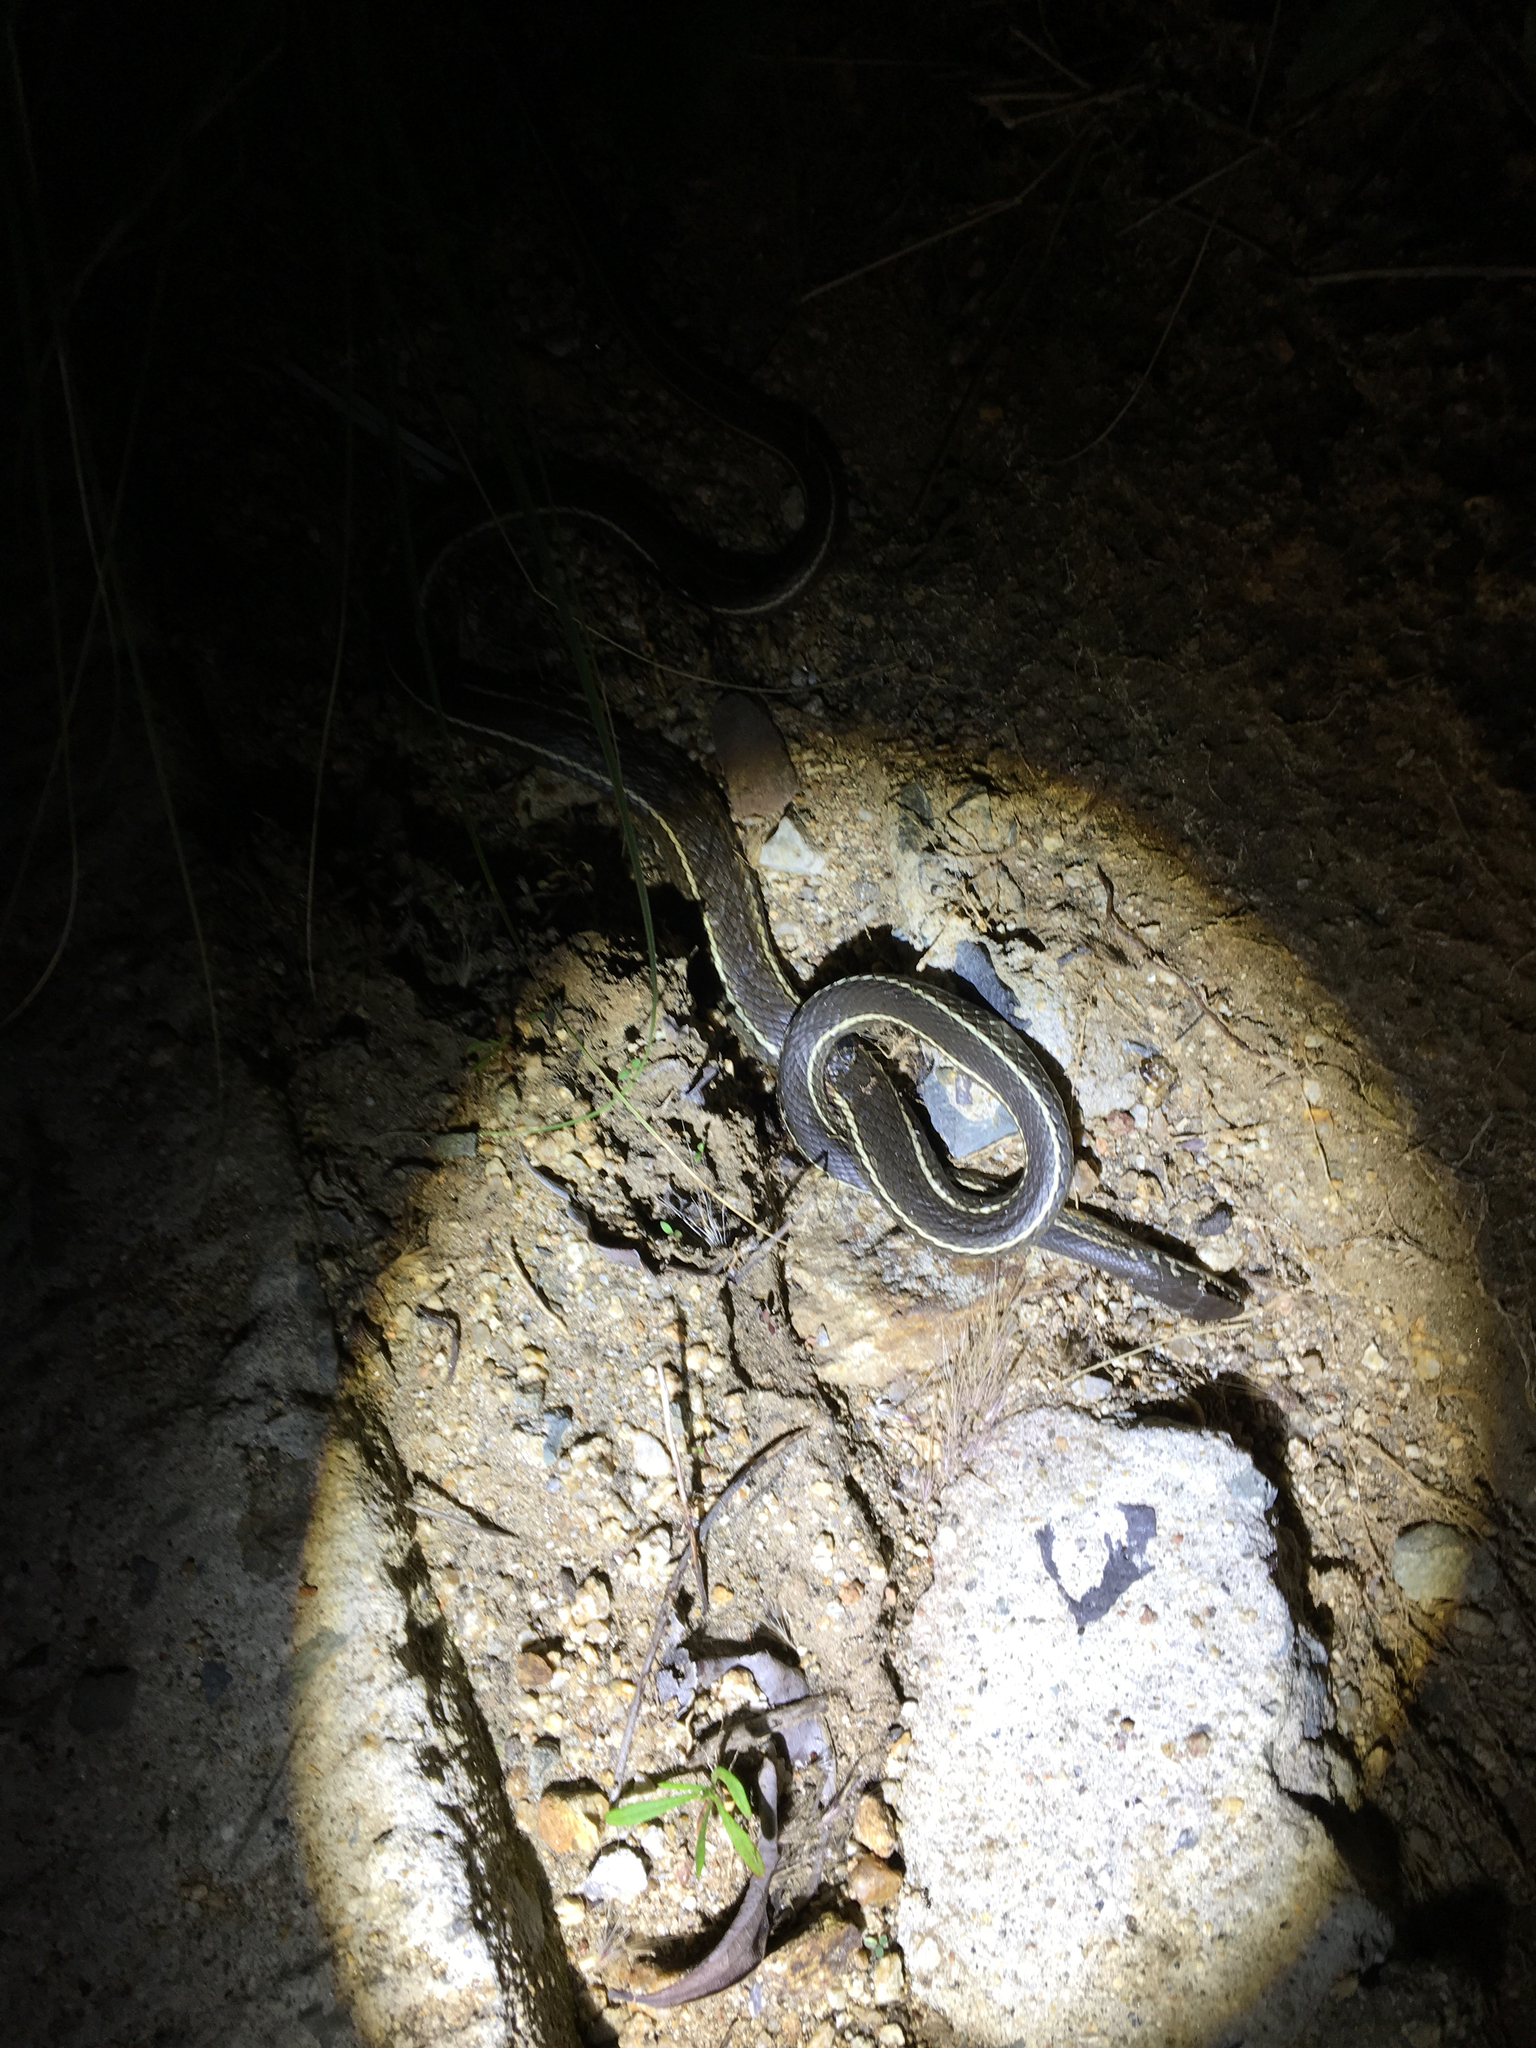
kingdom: Animalia
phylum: Chordata
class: Squamata
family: Colubridae
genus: Masticophis
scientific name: Masticophis lateralis
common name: Striped racer
